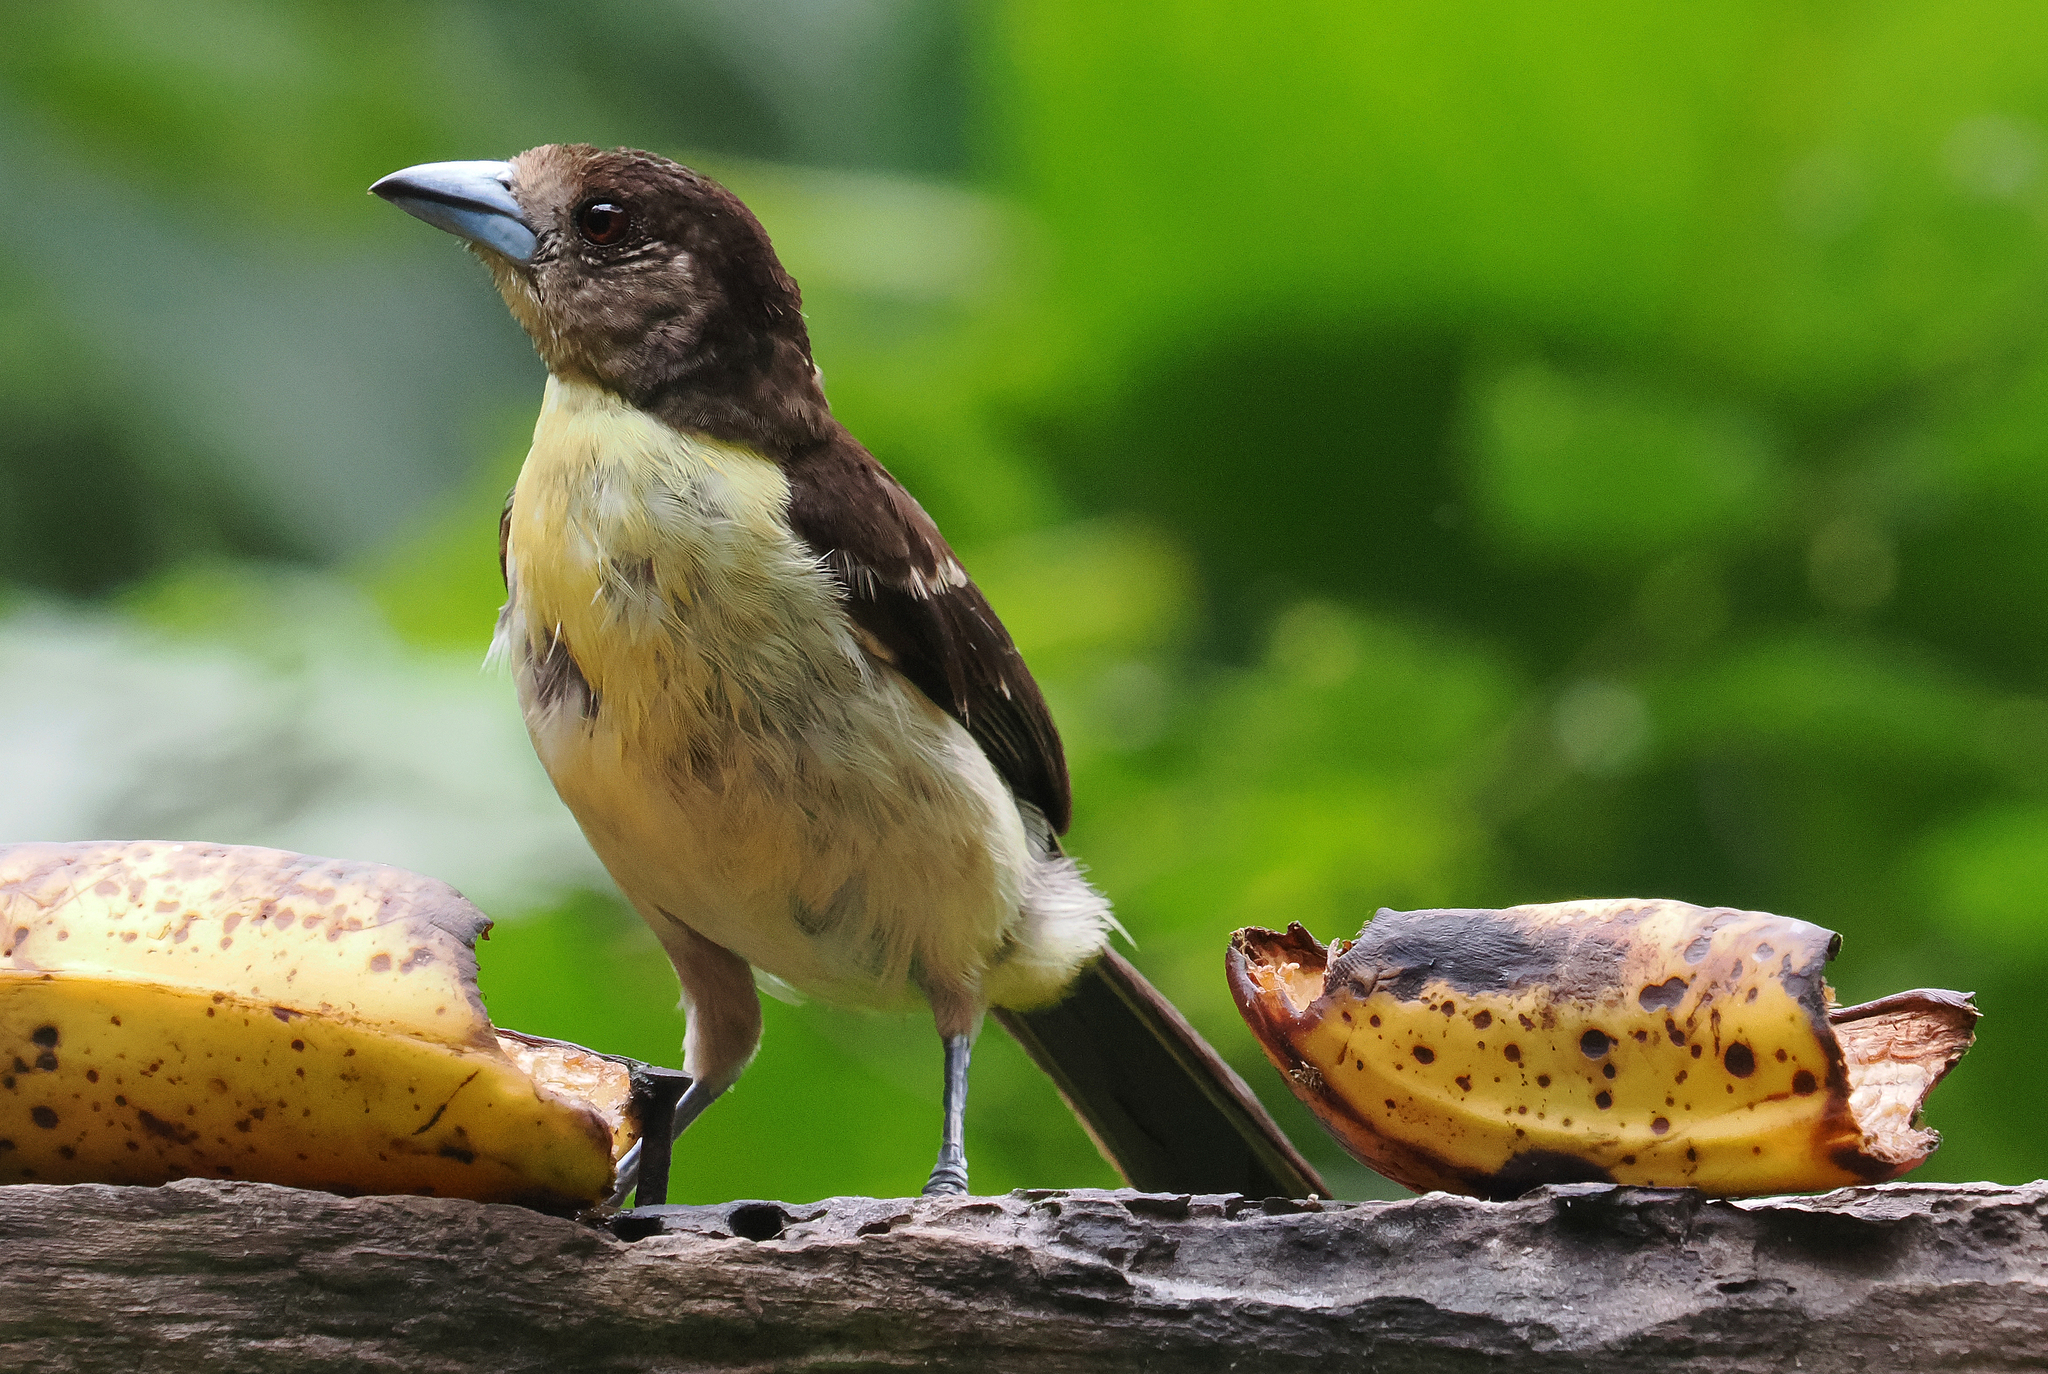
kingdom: Animalia
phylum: Chordata
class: Aves
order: Passeriformes
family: Thraupidae
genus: Ramphocelus
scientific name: Ramphocelus flammigerus
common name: Flame-rumped tanager
